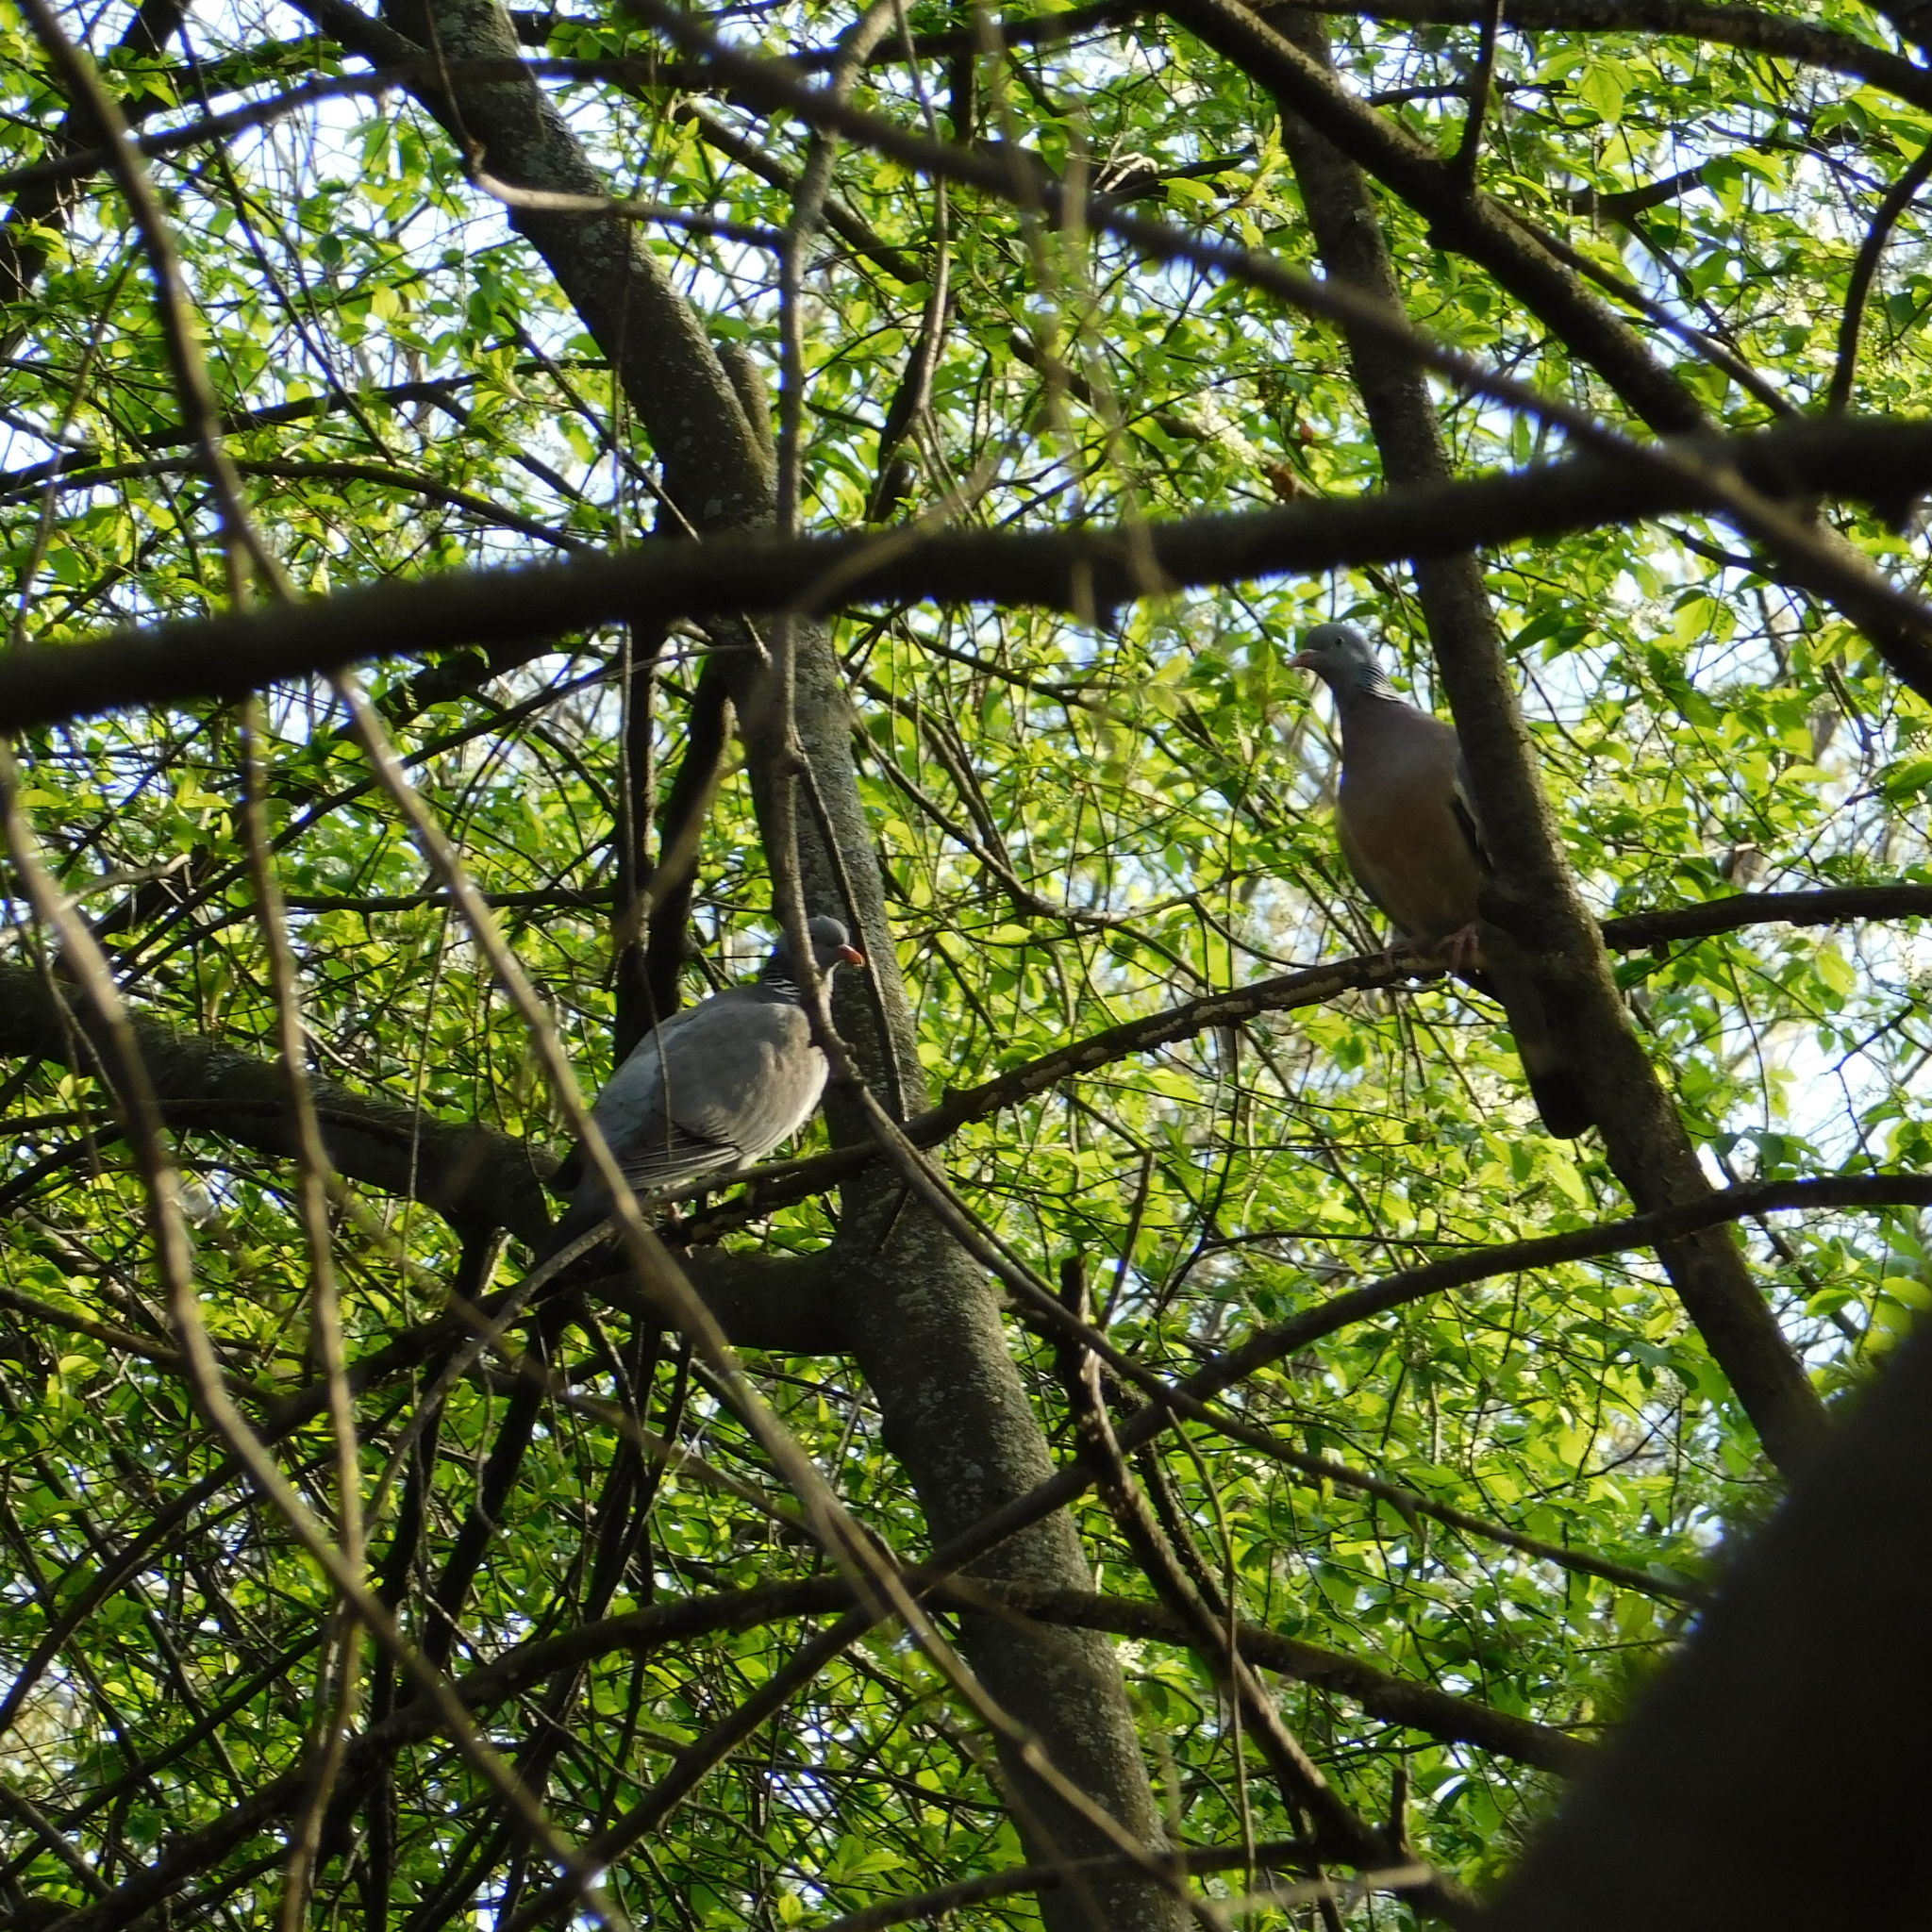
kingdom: Animalia
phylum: Chordata
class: Aves
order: Columbiformes
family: Columbidae
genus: Columba
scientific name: Columba palumbus
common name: Common wood pigeon
